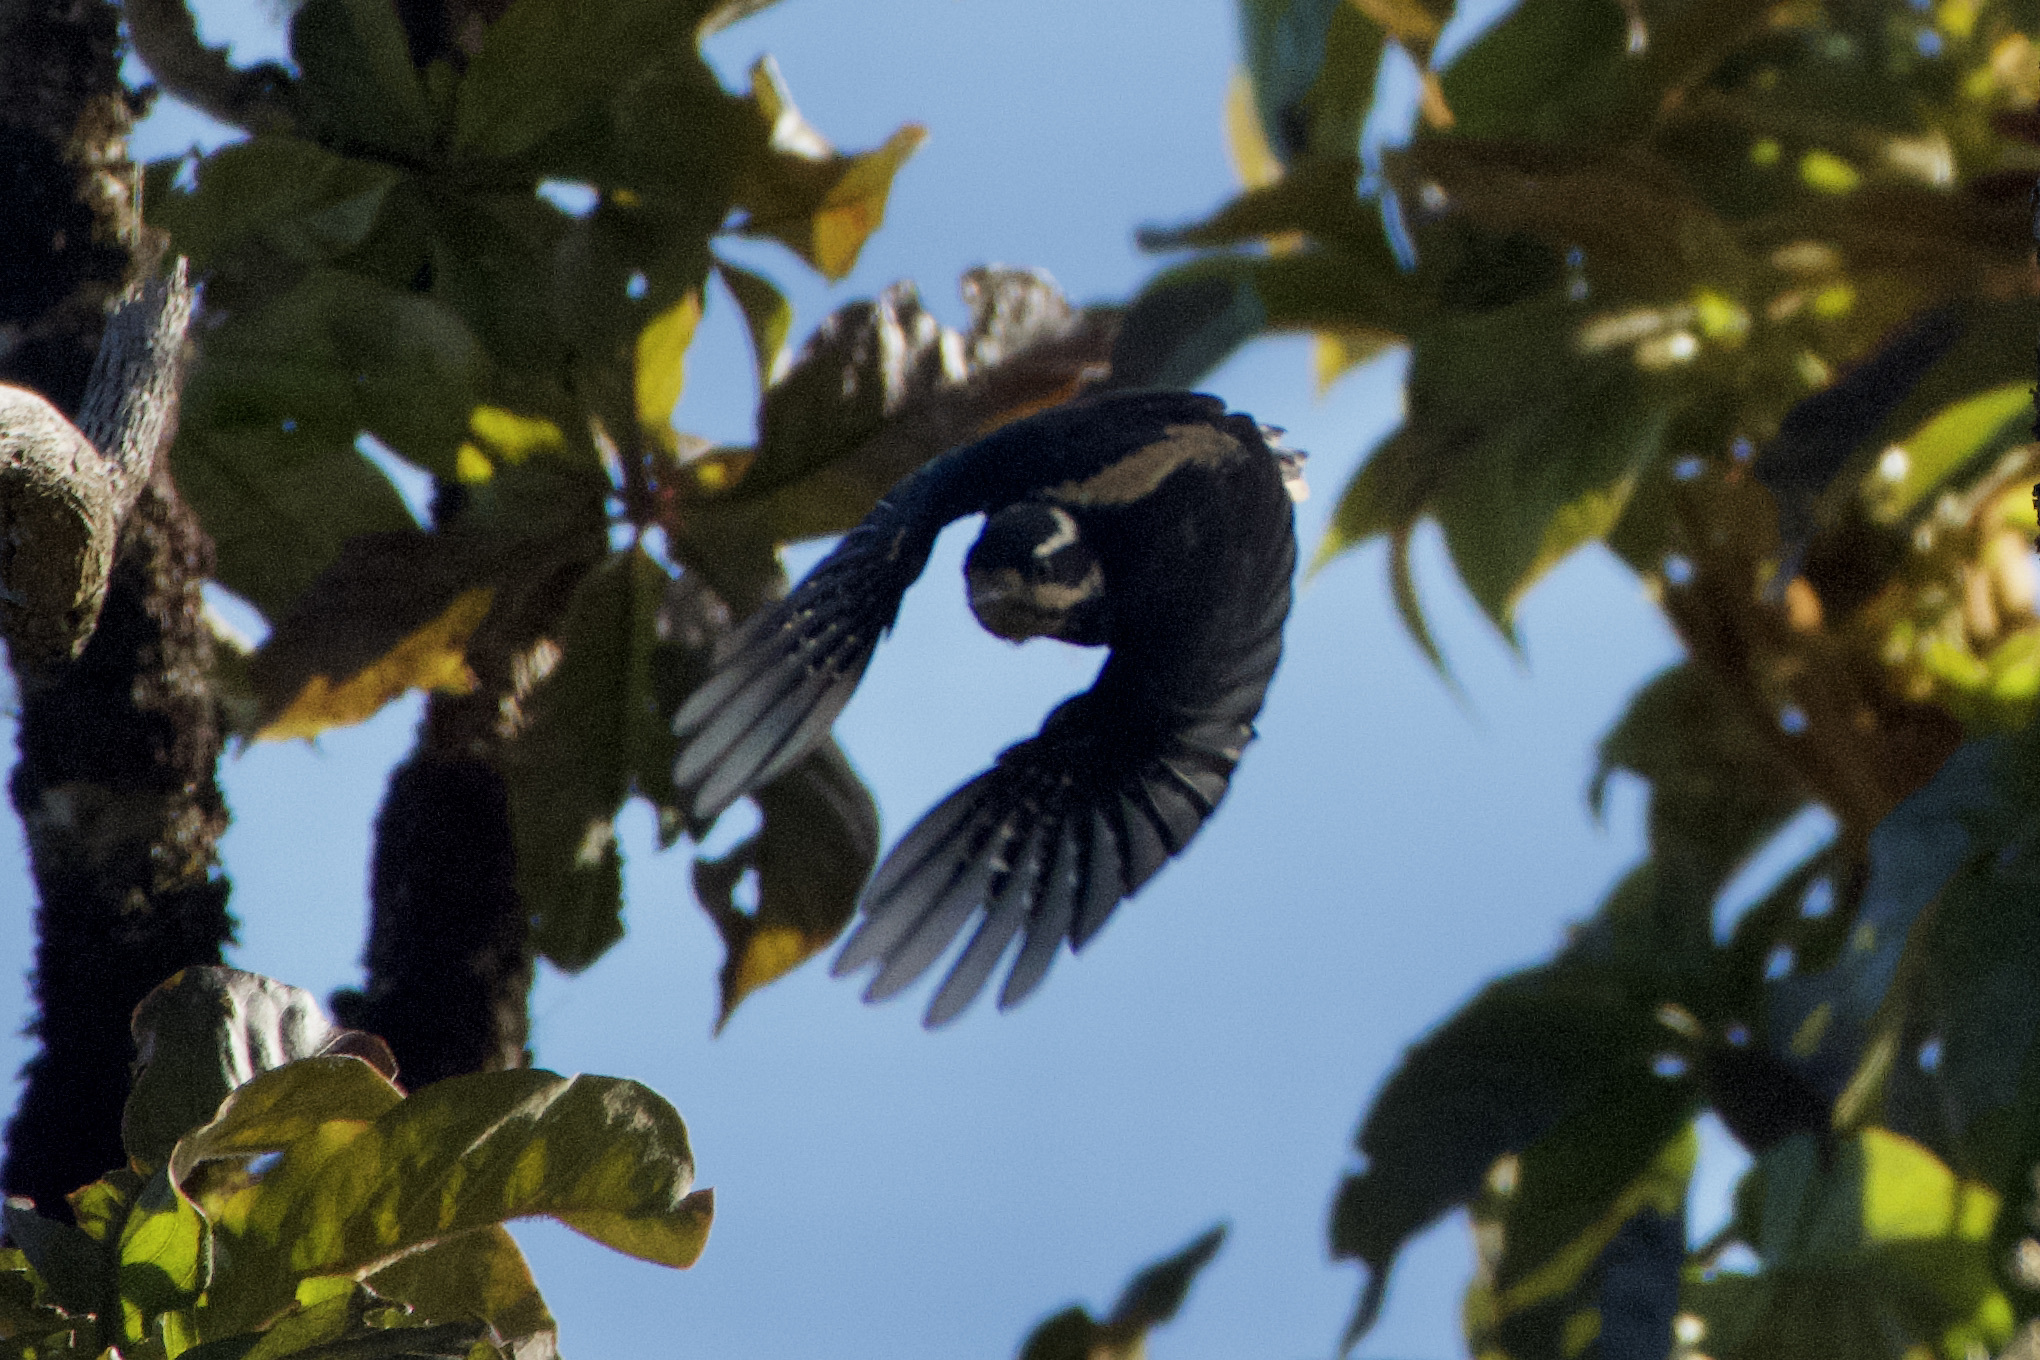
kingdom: Animalia
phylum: Chordata
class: Aves
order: Piciformes
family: Picidae
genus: Leuconotopicus
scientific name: Leuconotopicus villosus
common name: Hairy woodpecker
